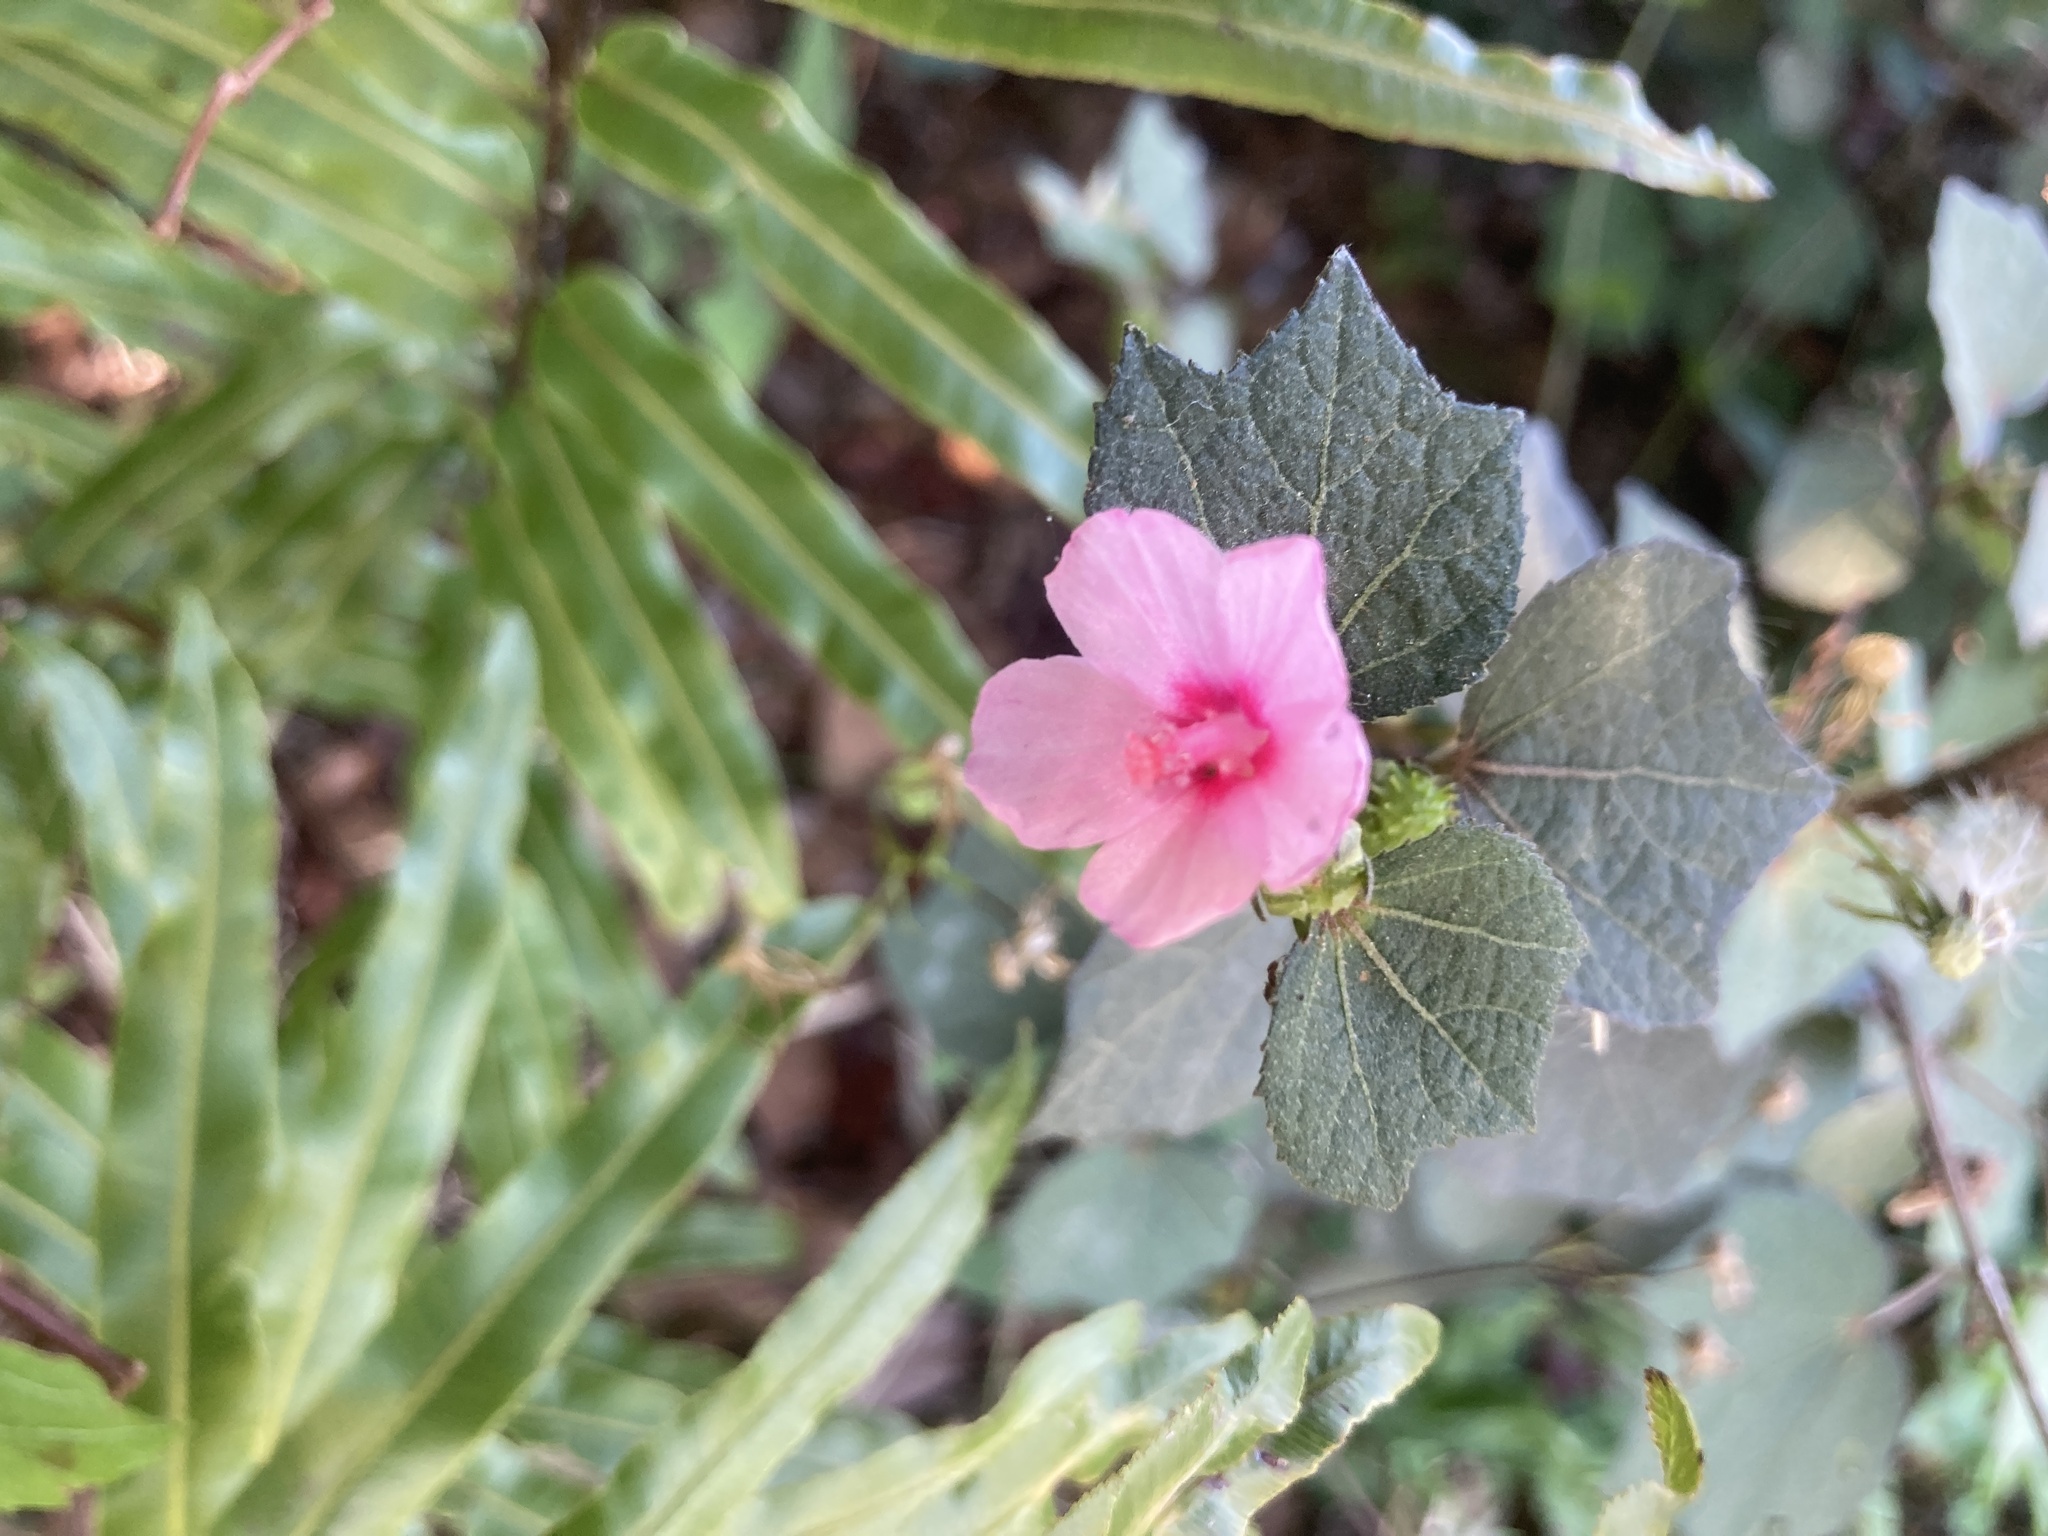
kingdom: Plantae
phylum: Tracheophyta
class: Magnoliopsida
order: Malvales
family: Malvaceae
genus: Urena
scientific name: Urena lobata
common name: Caesarweed
